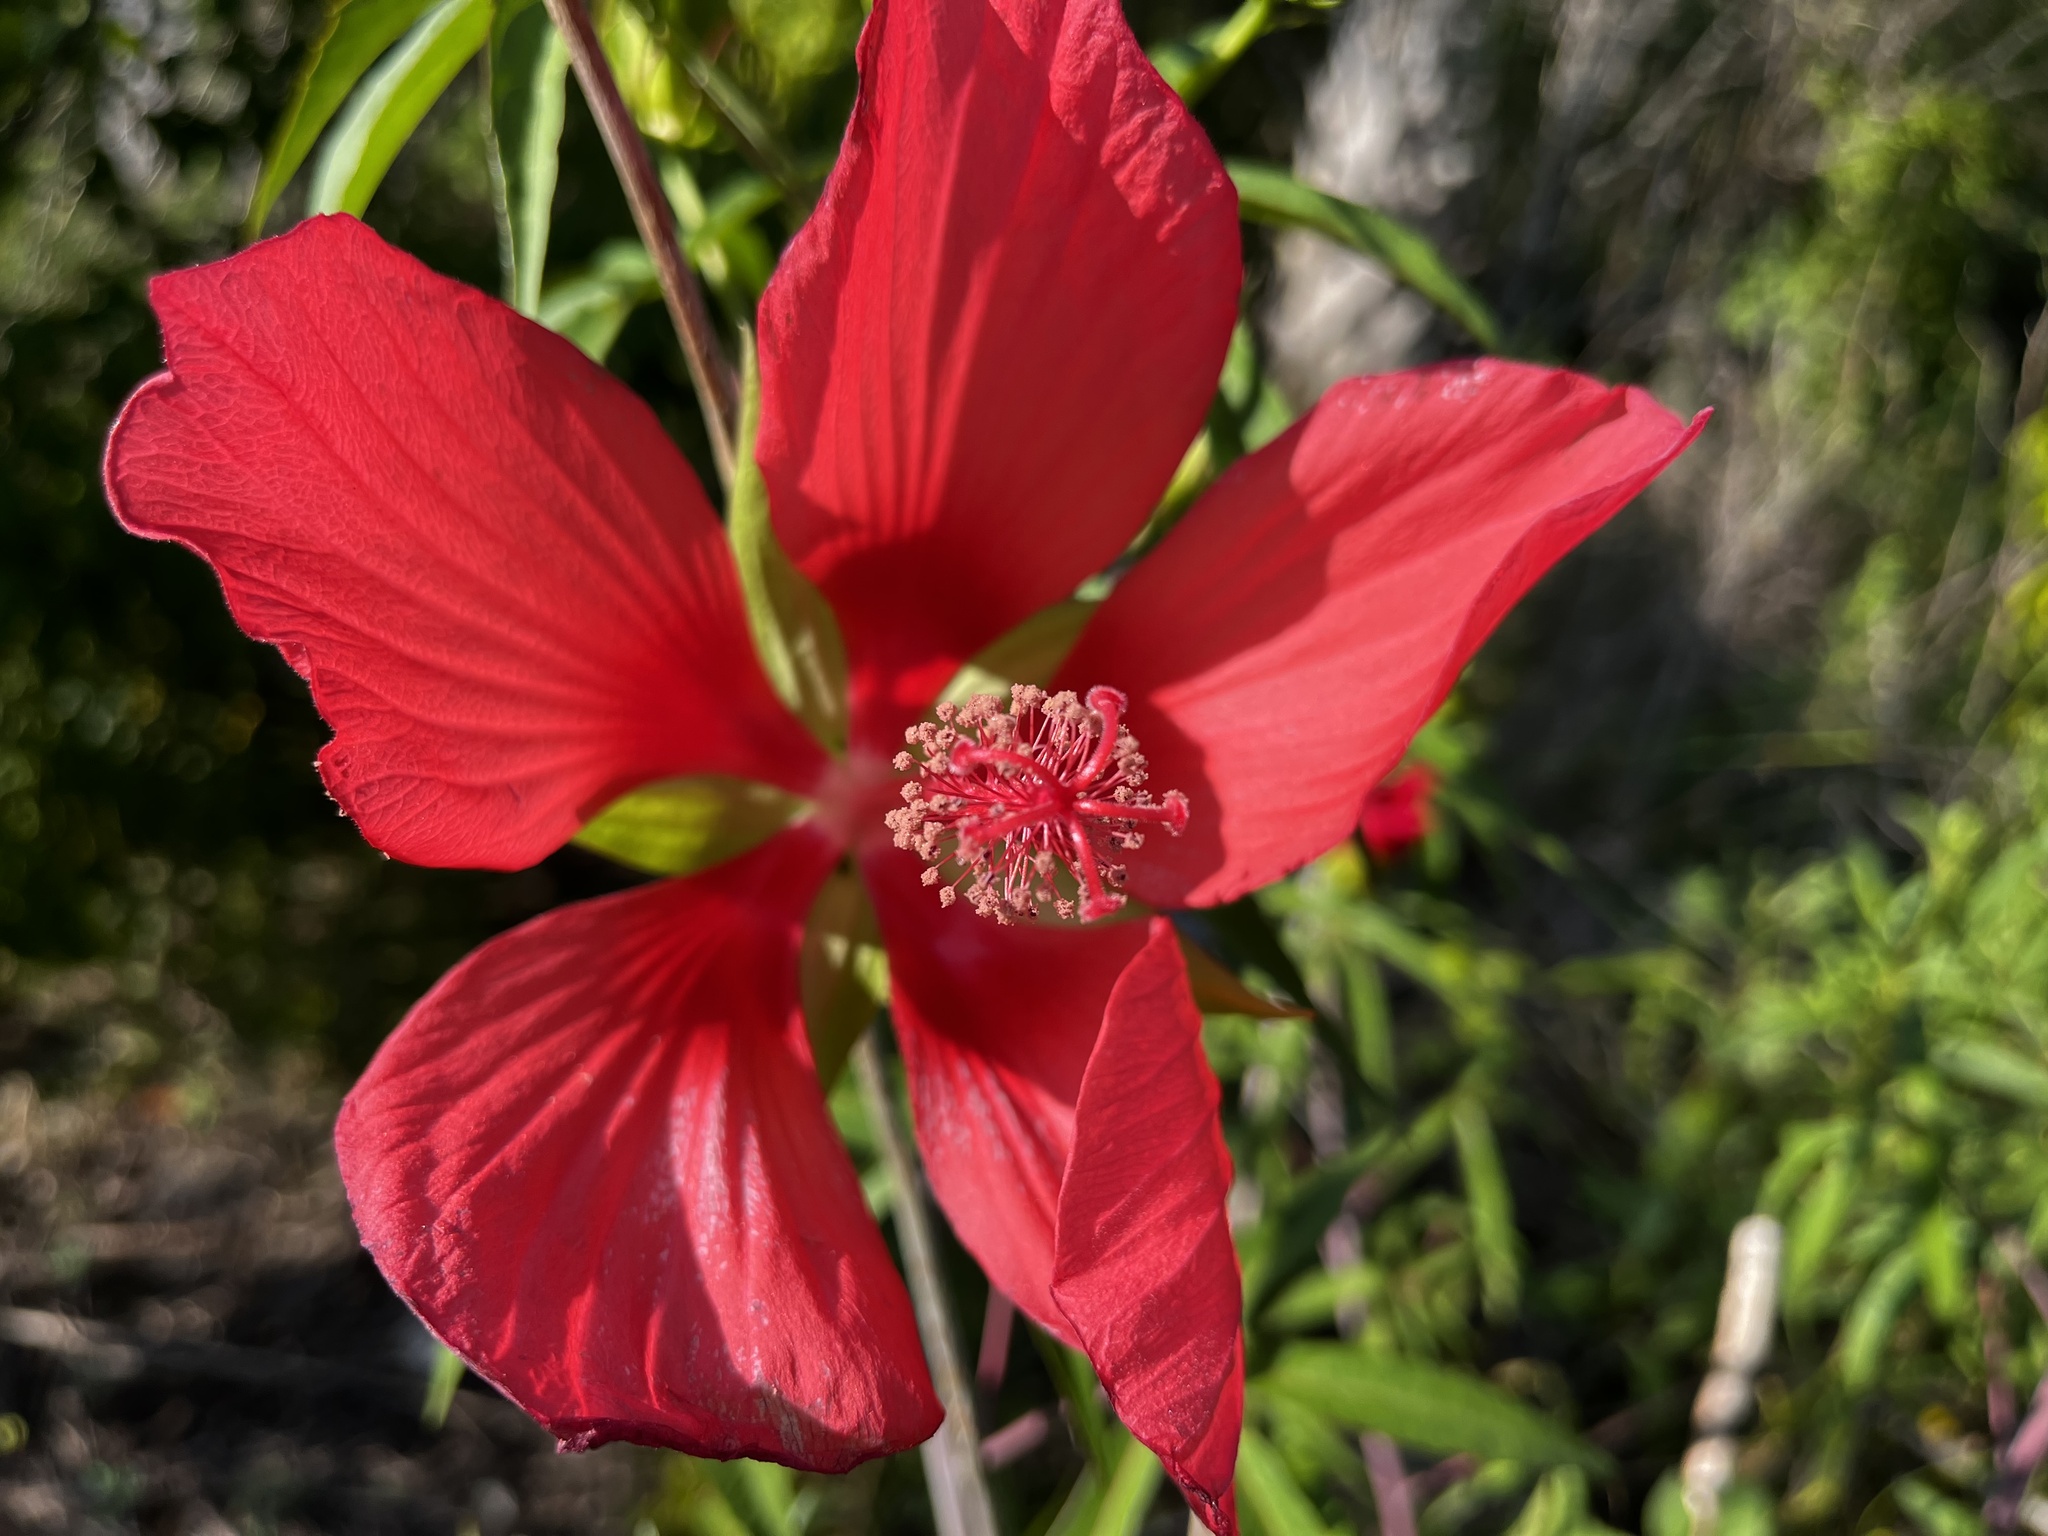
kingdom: Plantae
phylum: Tracheophyta
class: Magnoliopsida
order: Malvales
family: Malvaceae
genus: Hibiscus
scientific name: Hibiscus coccineus
